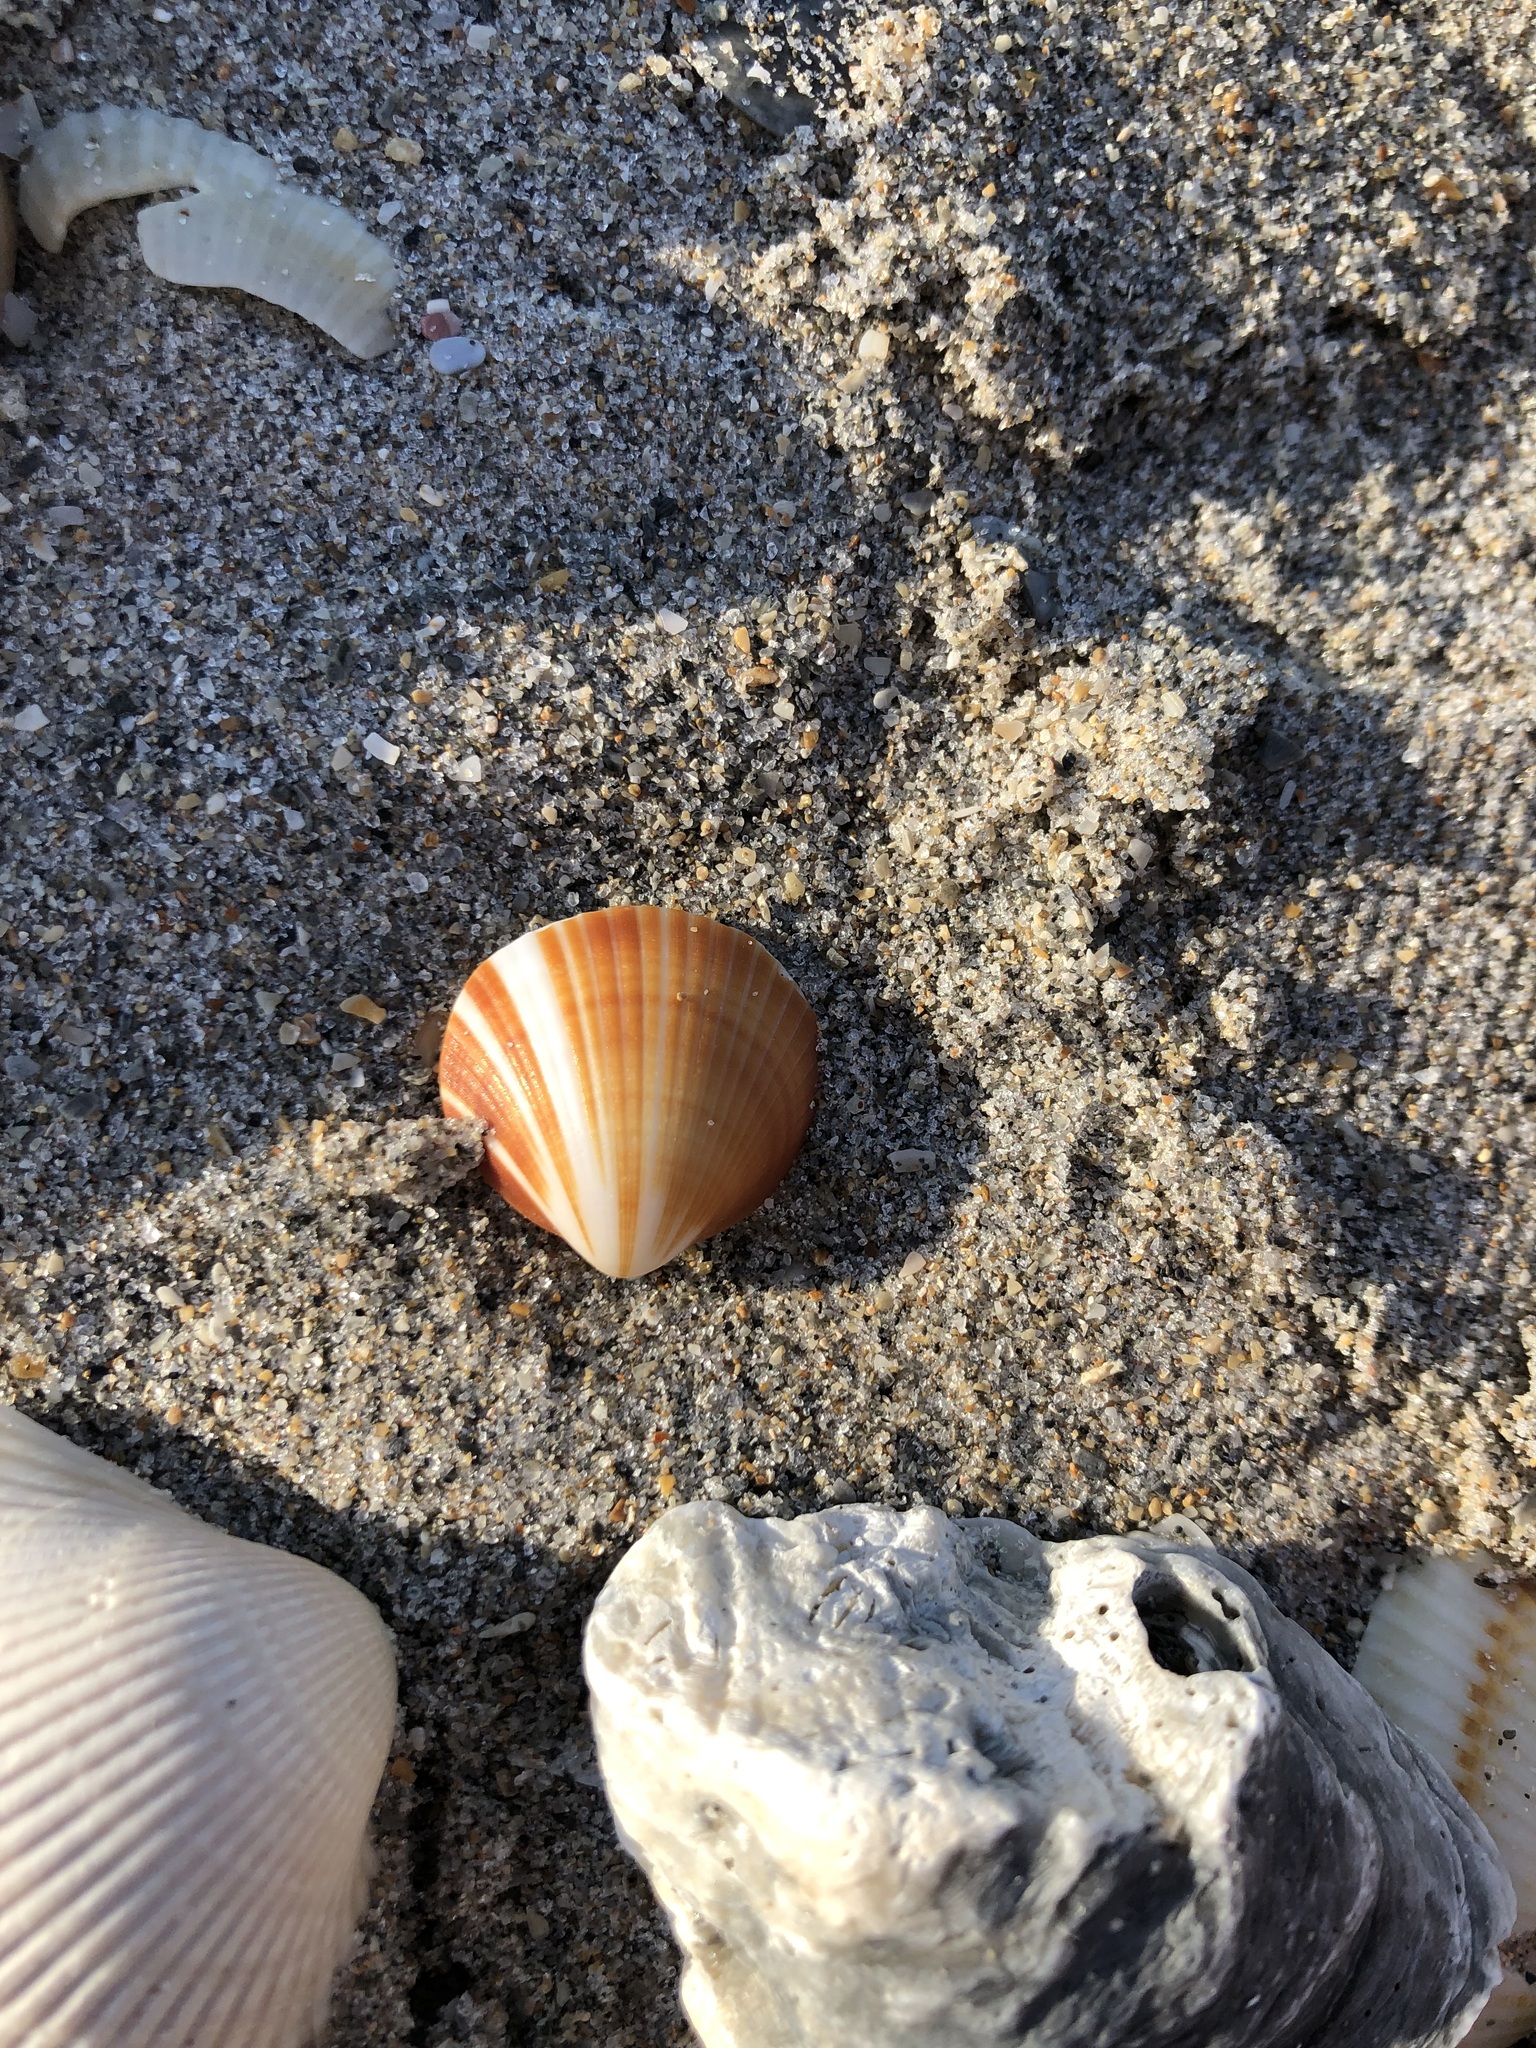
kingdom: Animalia
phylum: Mollusca
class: Bivalvia
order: Arcida
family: Glycymerididae
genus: Glycymeris
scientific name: Glycymeris spectralis
